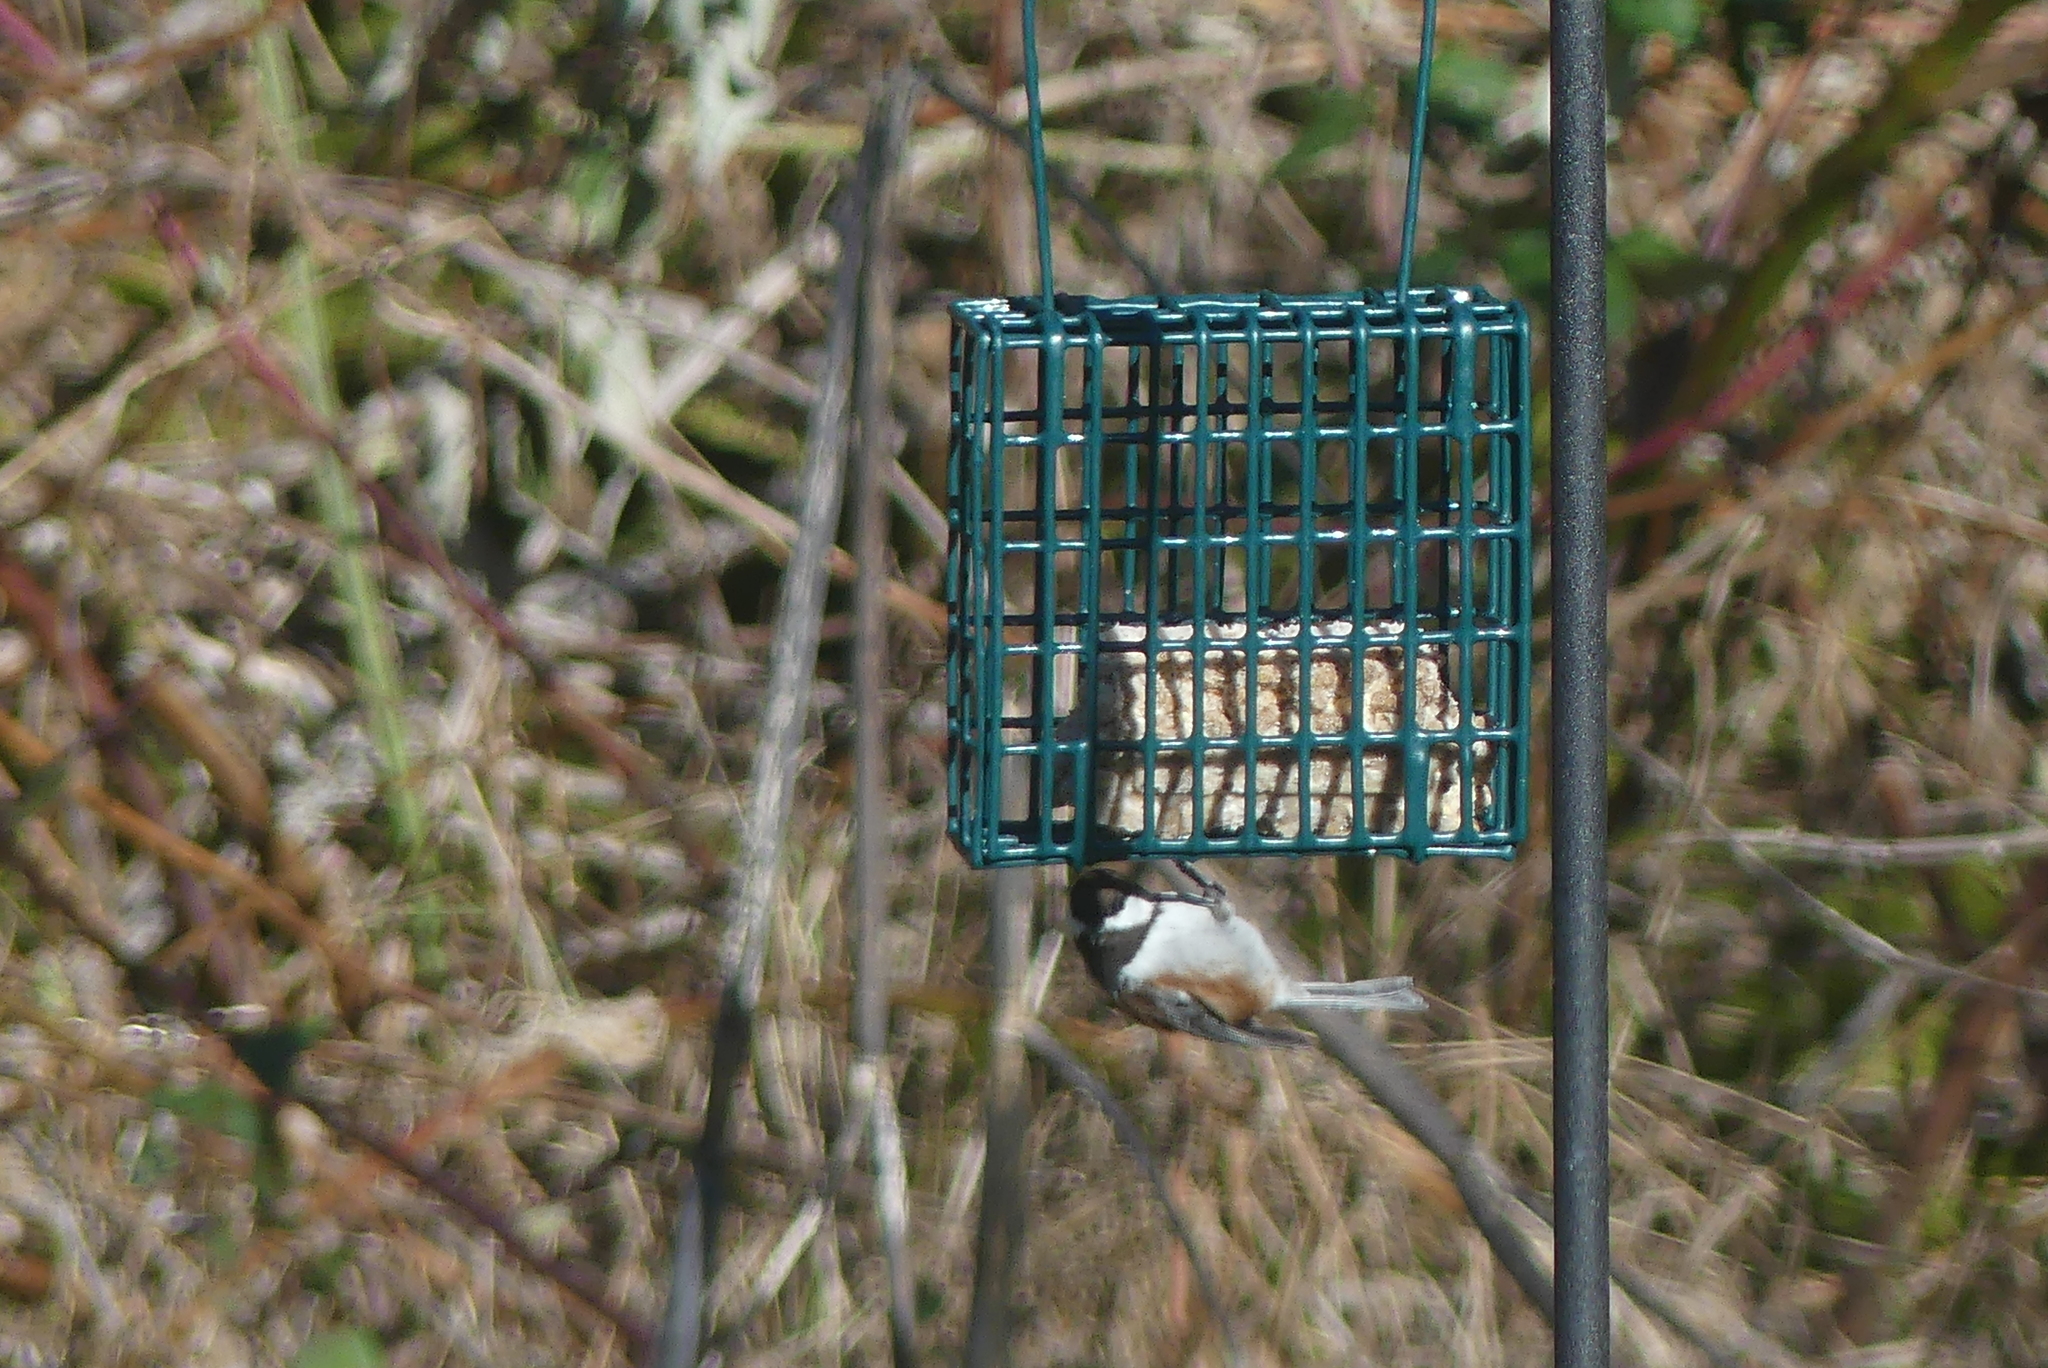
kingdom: Animalia
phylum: Chordata
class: Aves
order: Passeriformes
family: Paridae
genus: Poecile
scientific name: Poecile rufescens
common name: Chestnut-backed chickadee
